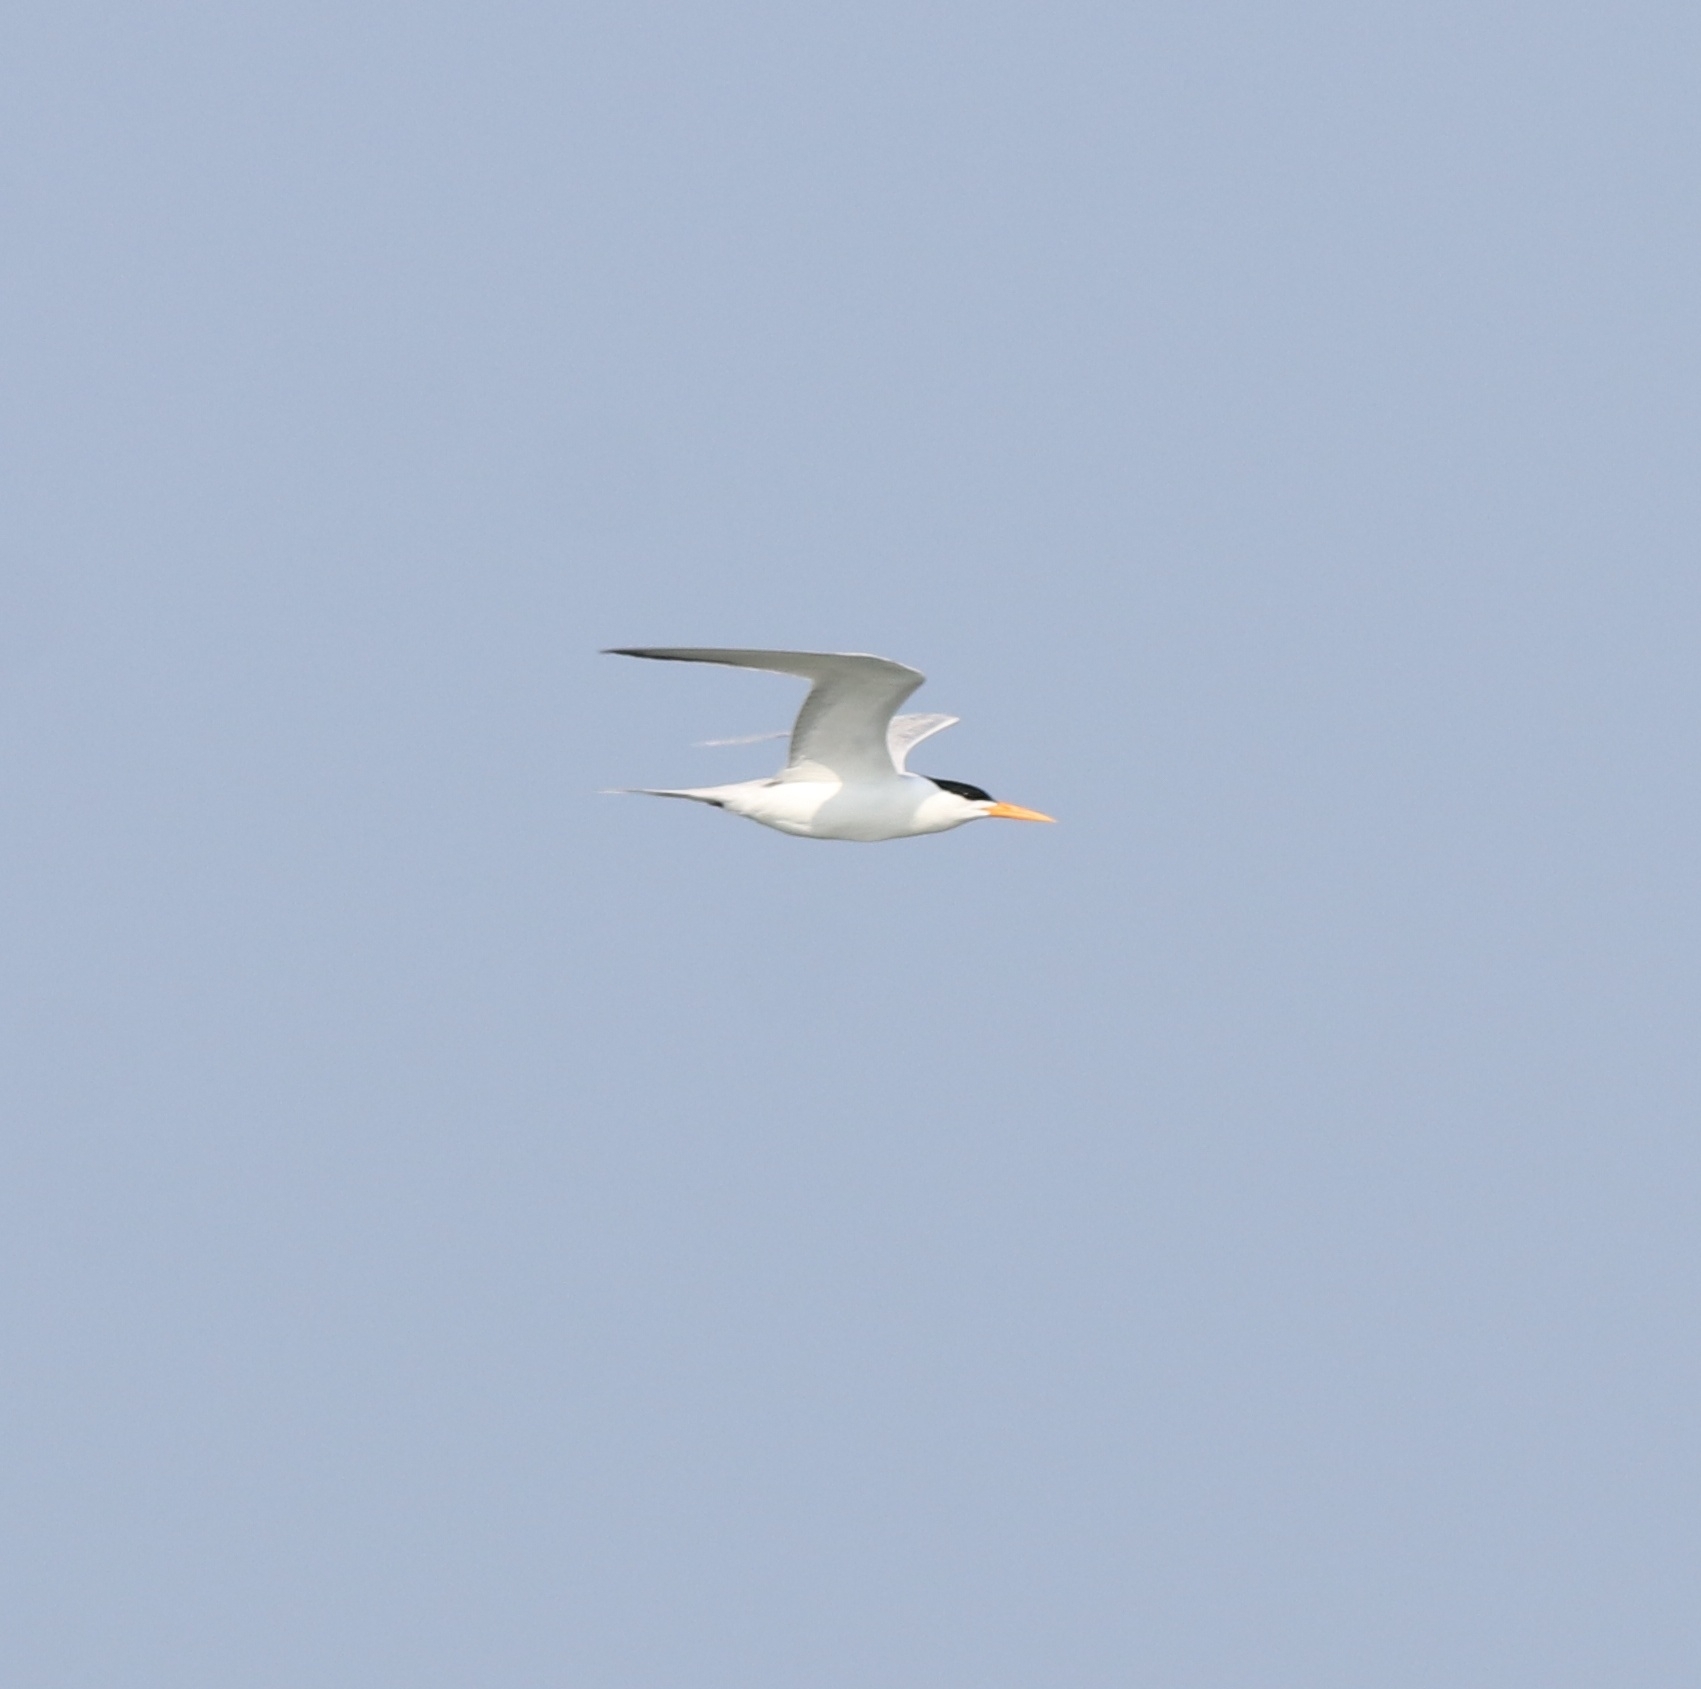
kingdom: Animalia
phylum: Chordata
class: Aves
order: Charadriiformes
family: Laridae
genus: Thalasseus
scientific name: Thalasseus bengalensis
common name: Lesser crested tern
